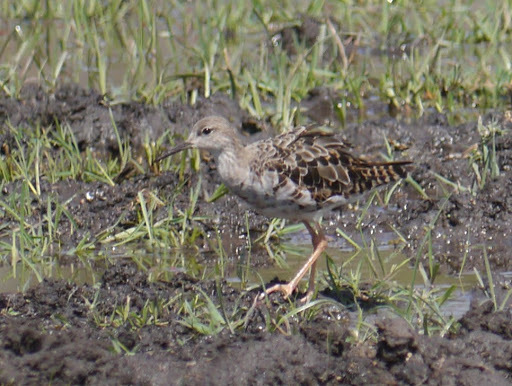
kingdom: Animalia
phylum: Chordata
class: Aves
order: Charadriiformes
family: Scolopacidae
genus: Calidris
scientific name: Calidris pugnax
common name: Ruff
